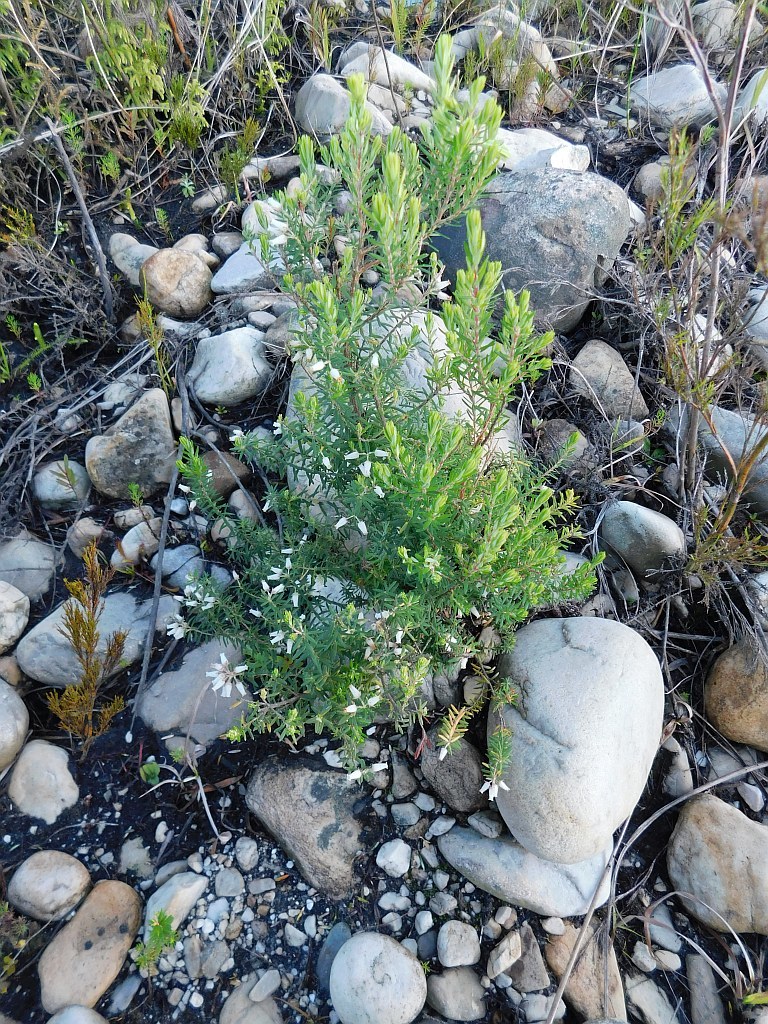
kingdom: Plantae
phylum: Tracheophyta
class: Magnoliopsida
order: Ericales
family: Ericaceae
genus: Erica
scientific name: Erica caffra
